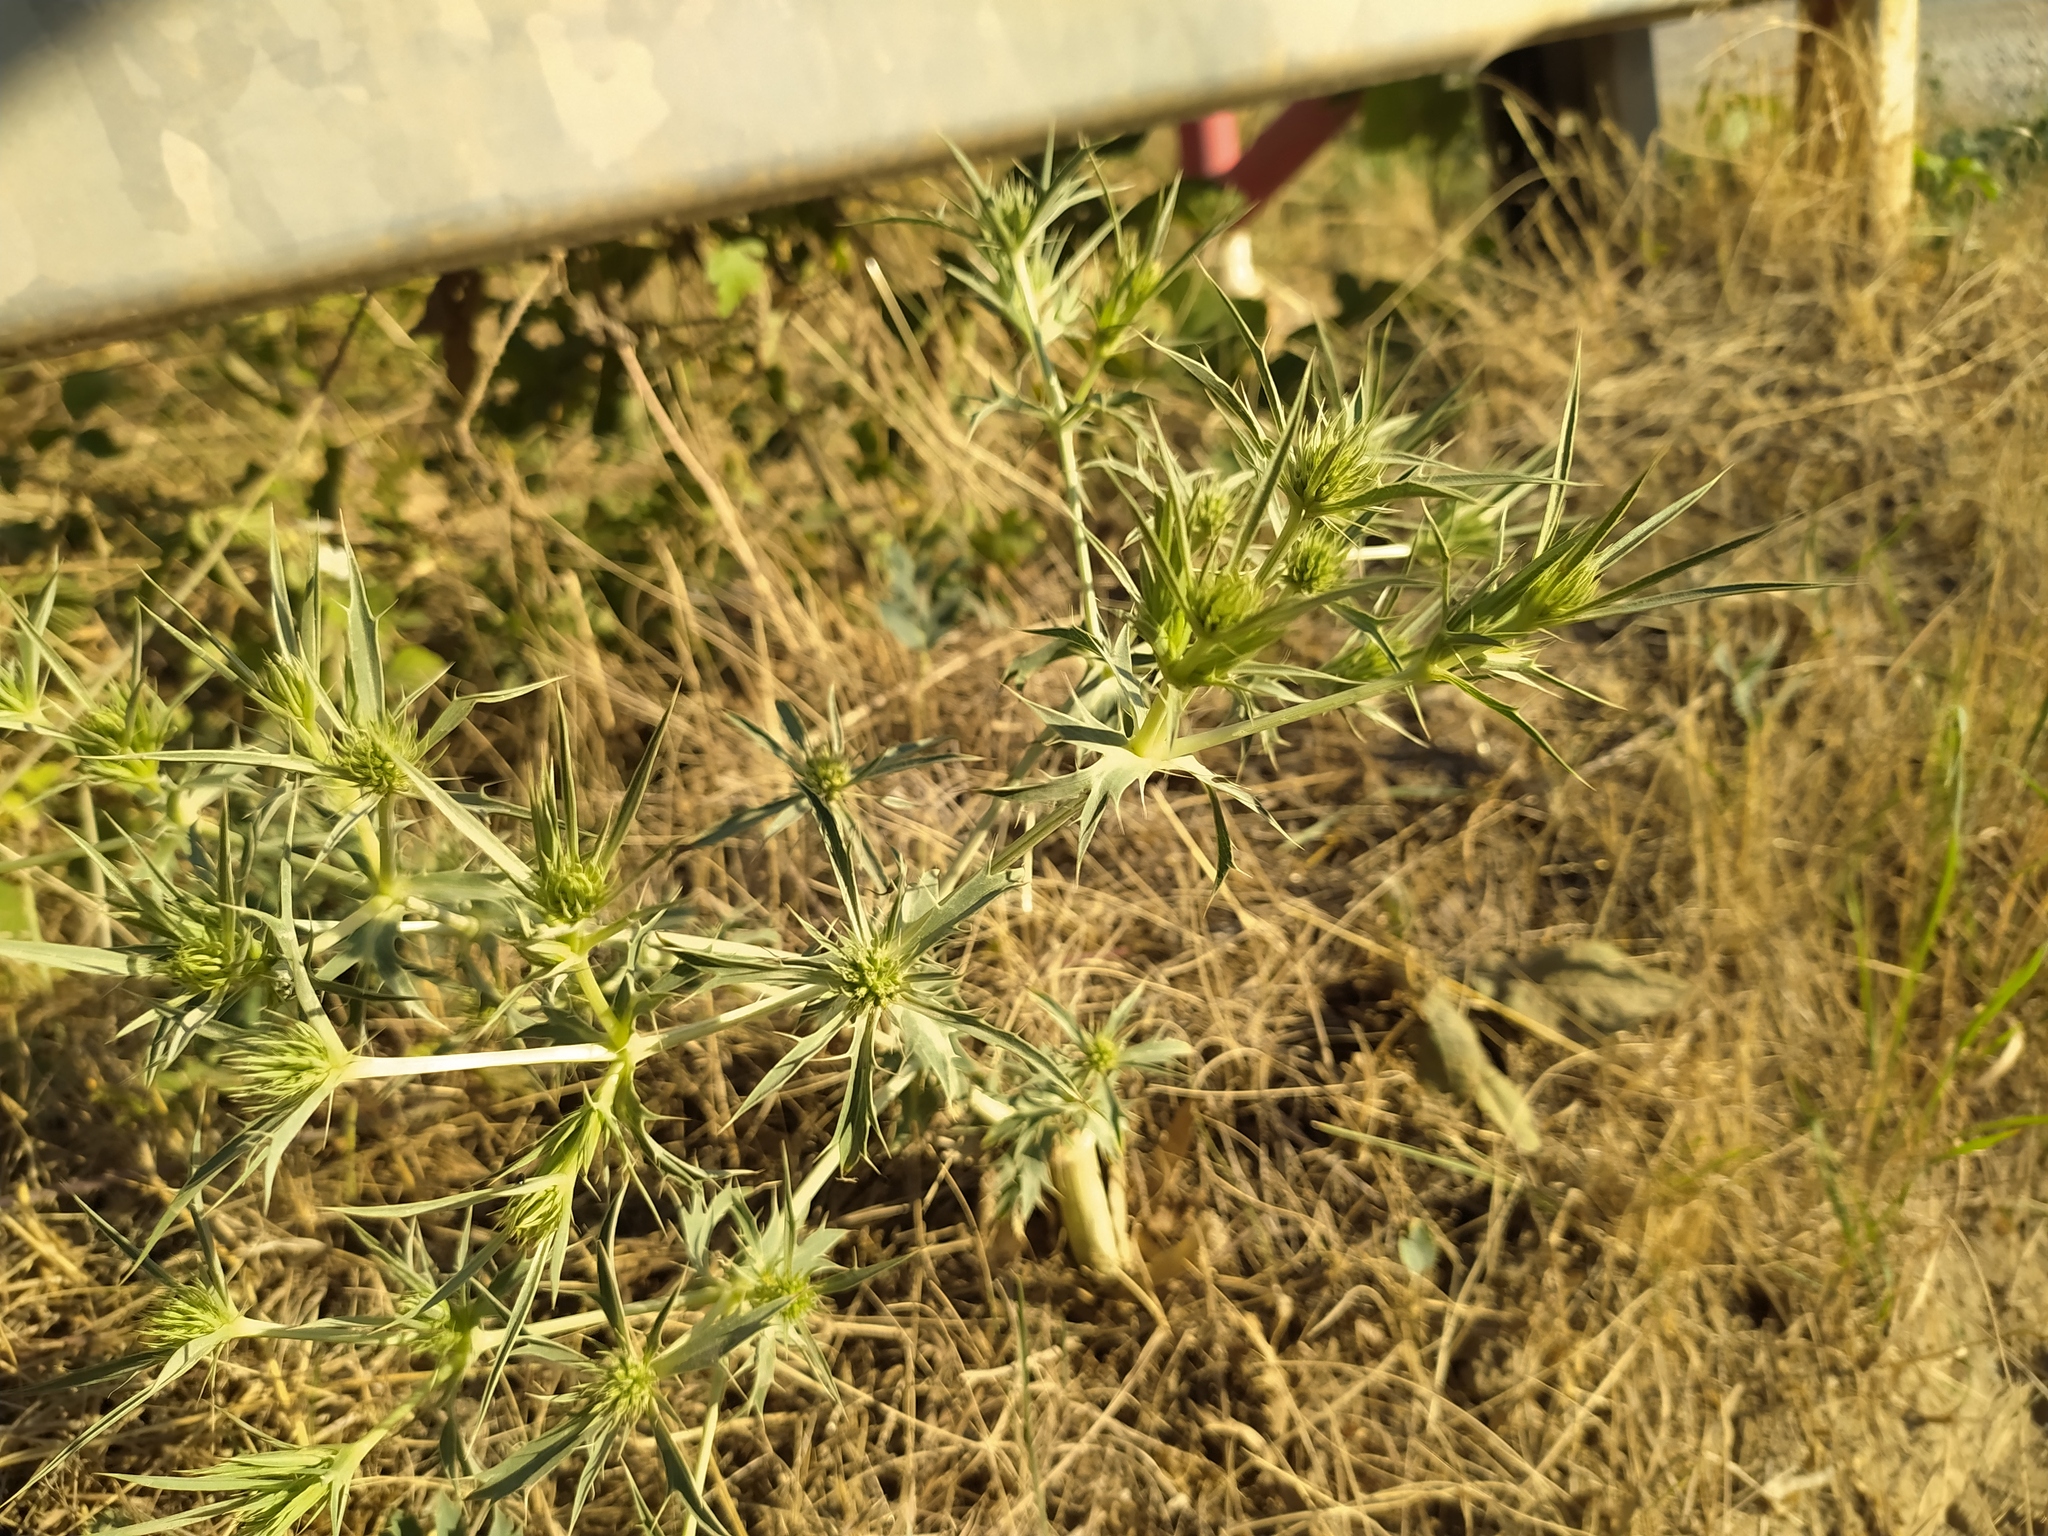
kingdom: Plantae
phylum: Tracheophyta
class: Magnoliopsida
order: Apiales
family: Apiaceae
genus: Eryngium
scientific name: Eryngium campestre
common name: Field eryngo
